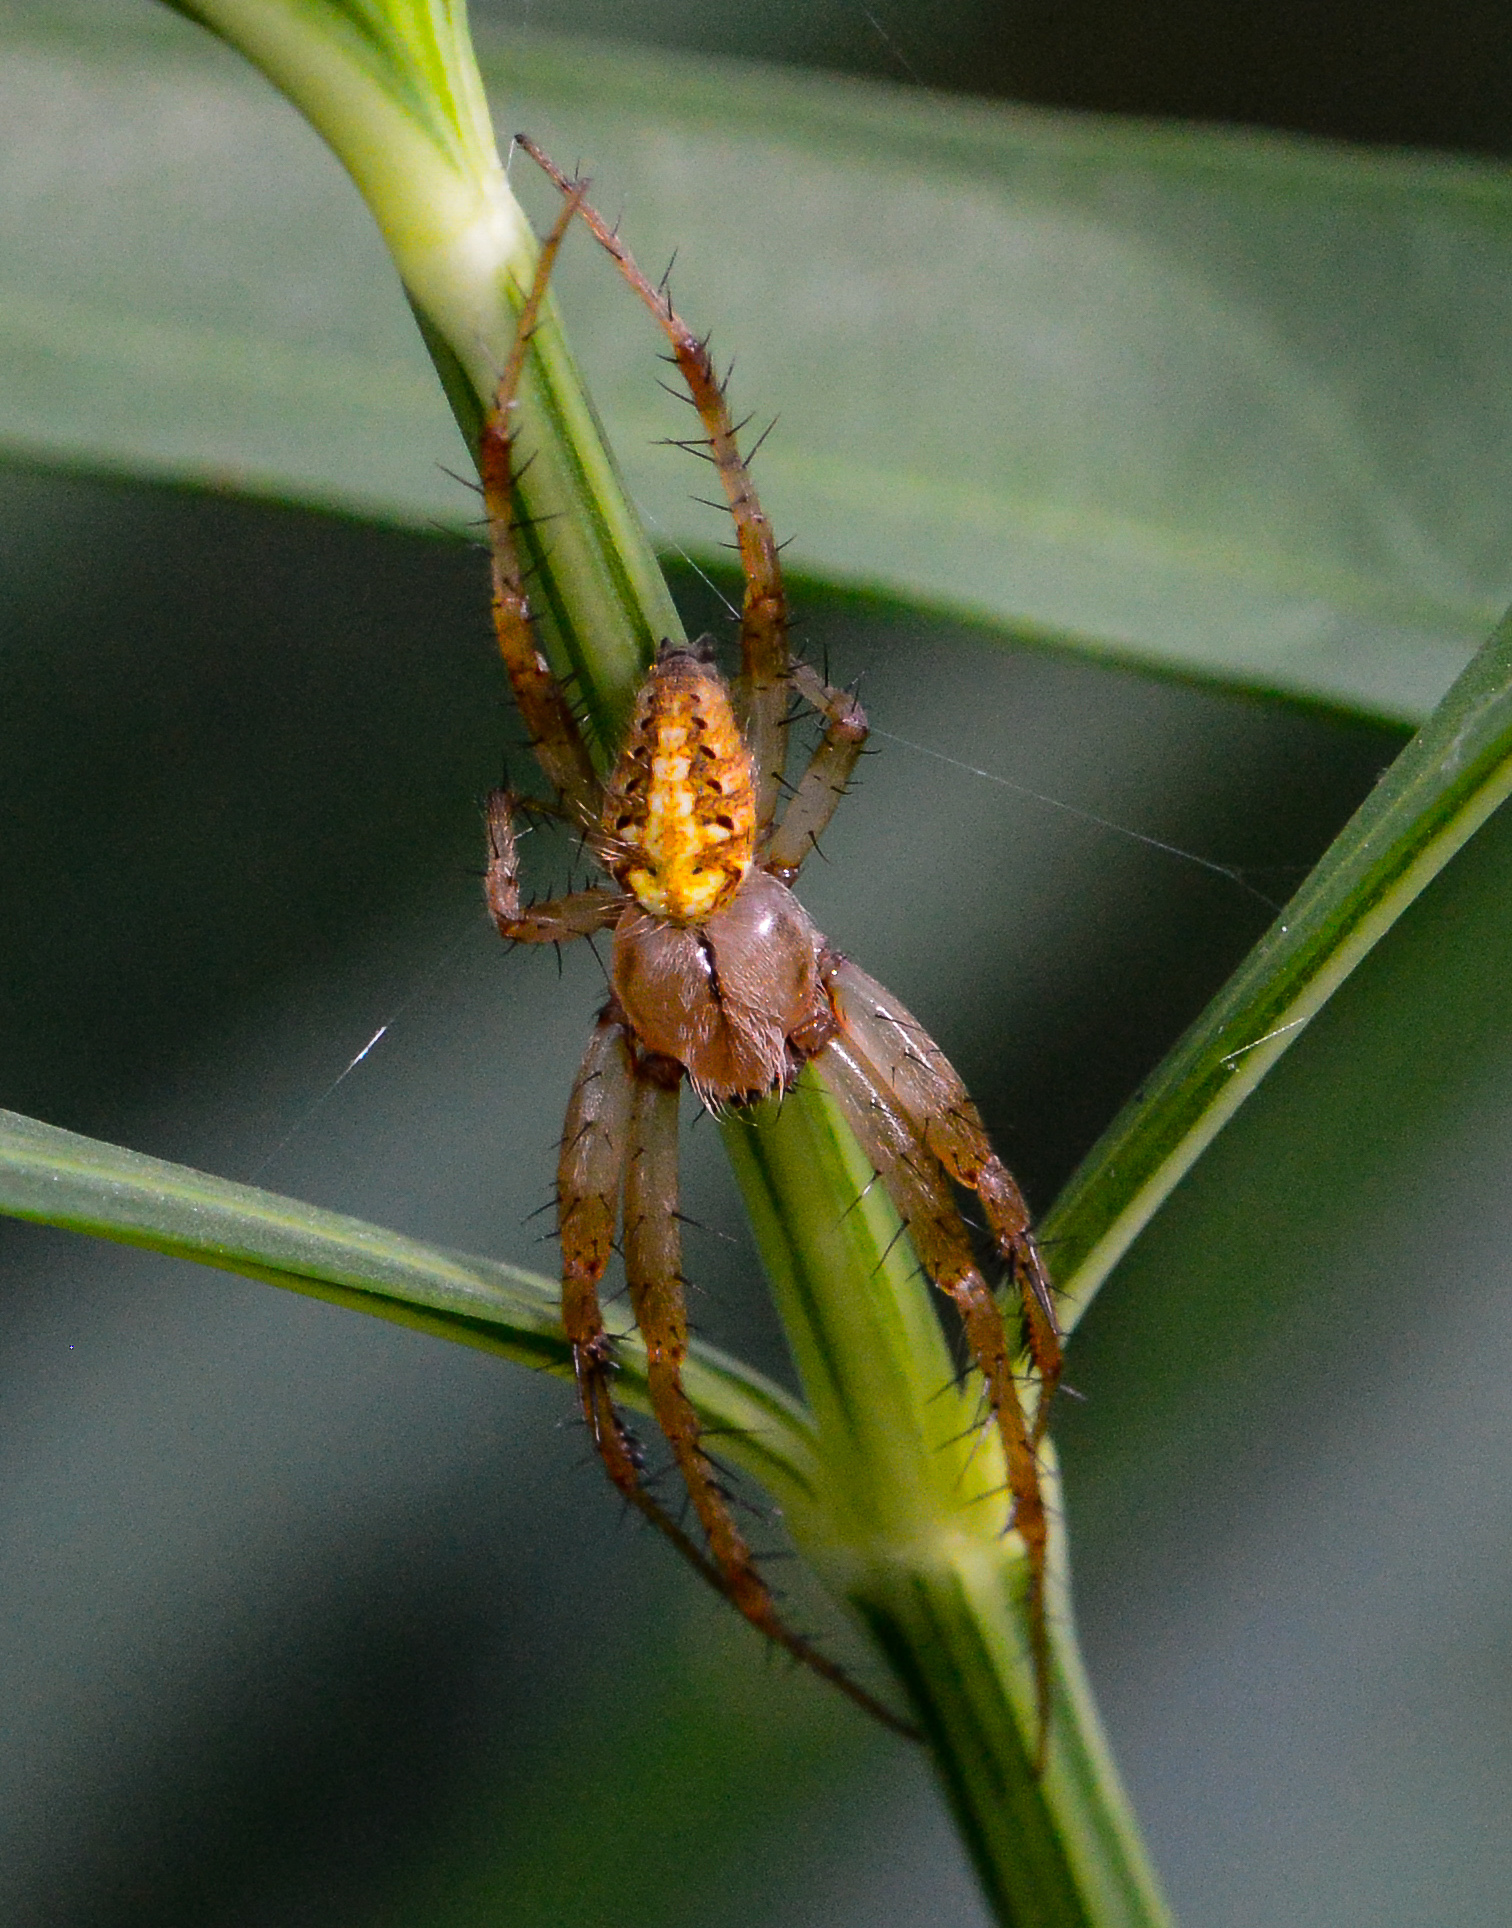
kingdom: Animalia
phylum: Arthropoda
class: Arachnida
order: Araneae
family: Araneidae
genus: Neoscona
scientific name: Neoscona arabesca
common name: Orb weavers
